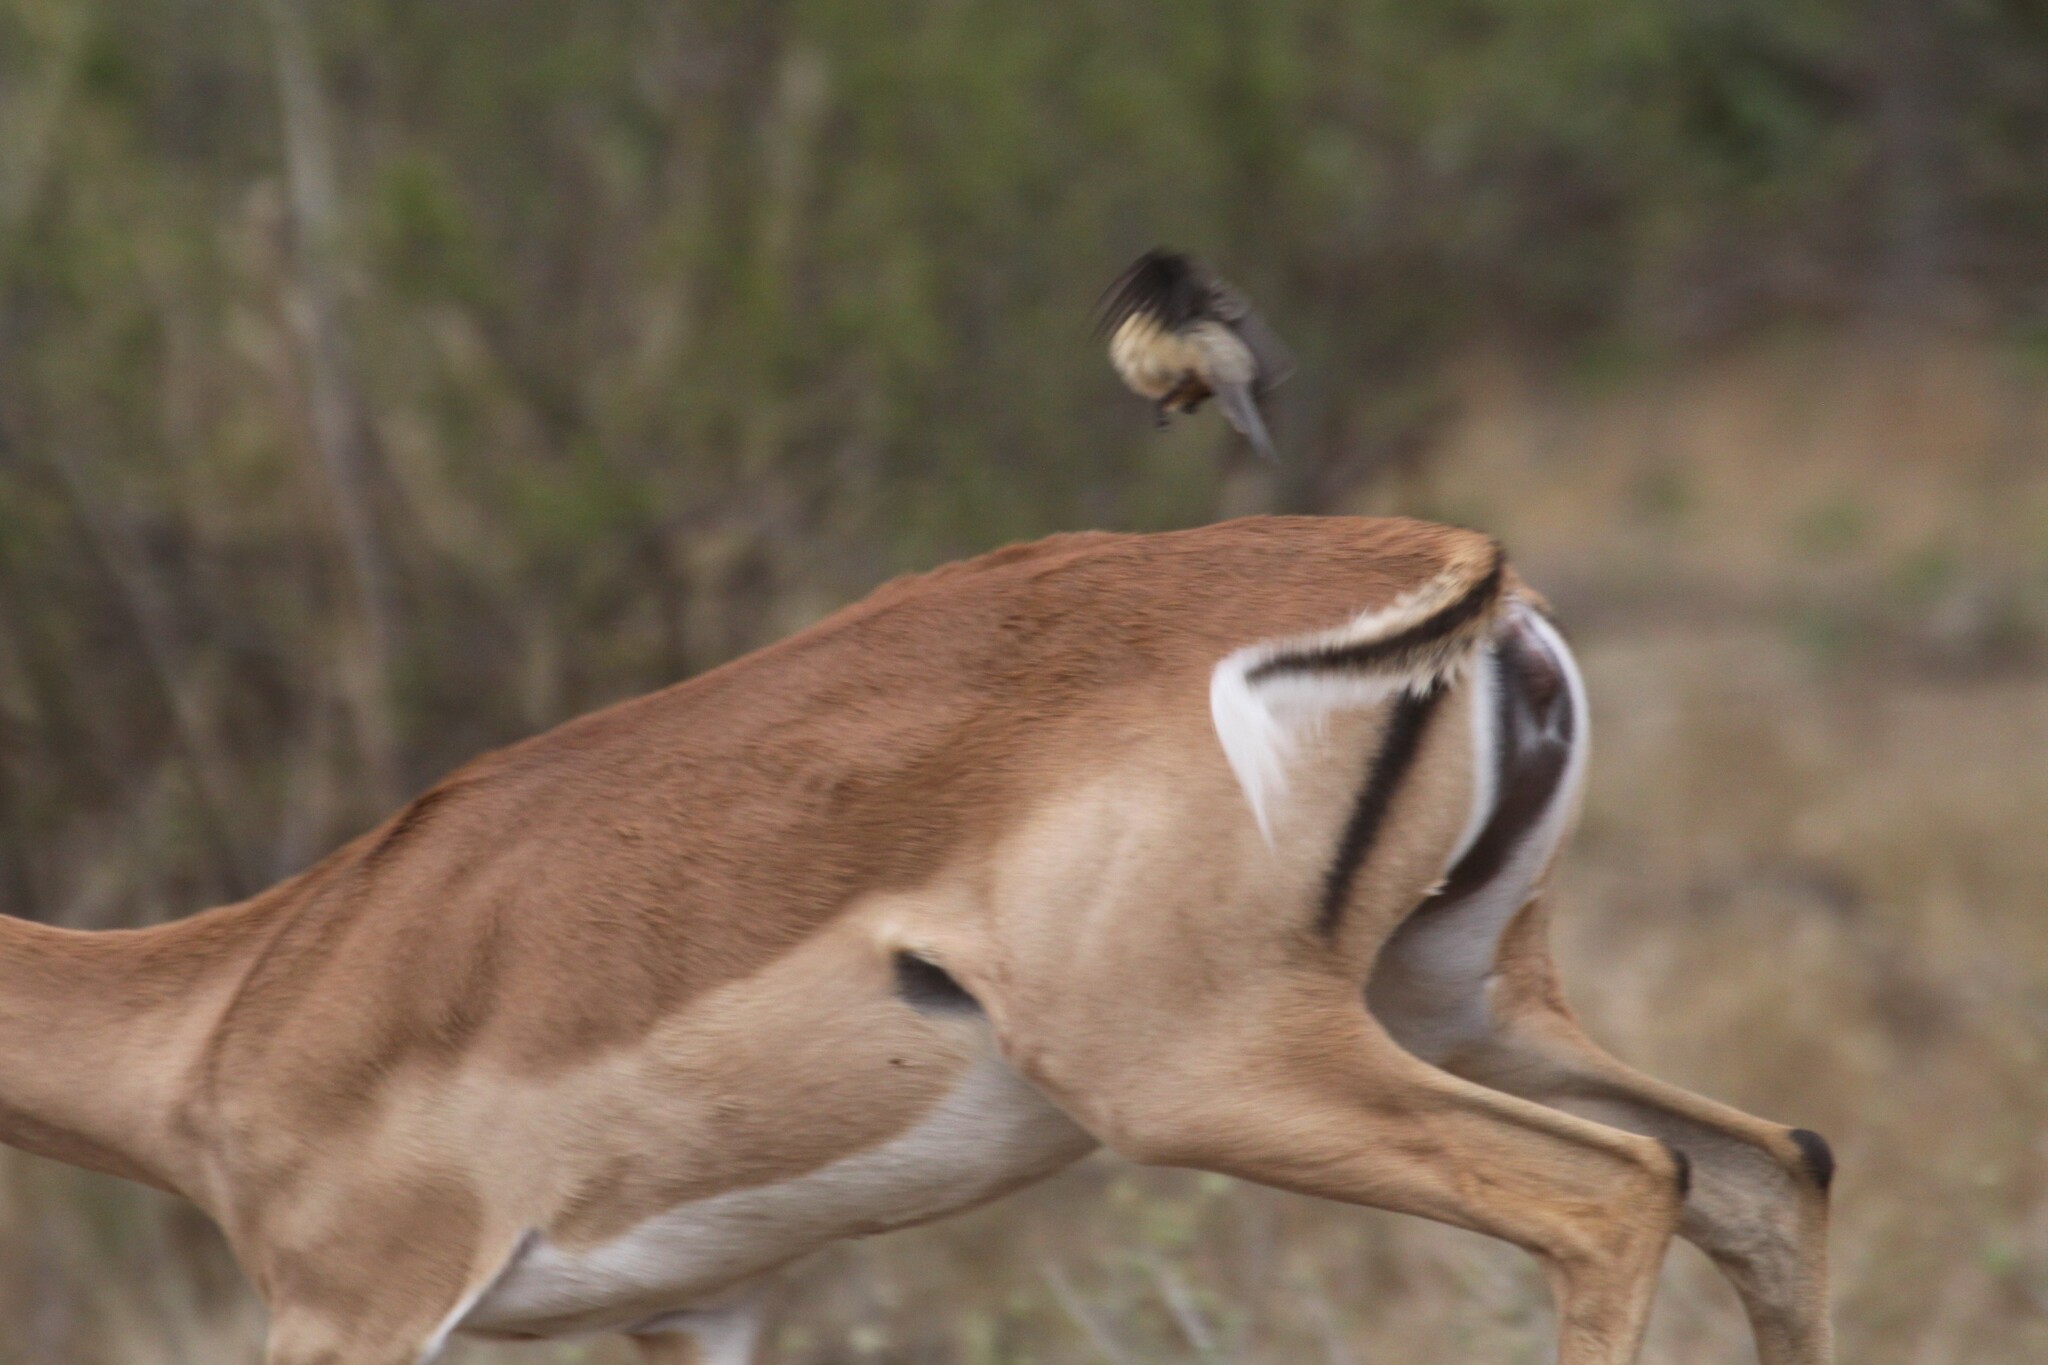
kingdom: Animalia
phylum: Chordata
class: Mammalia
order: Artiodactyla
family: Bovidae
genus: Aepyceros
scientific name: Aepyceros melampus
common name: Impala
